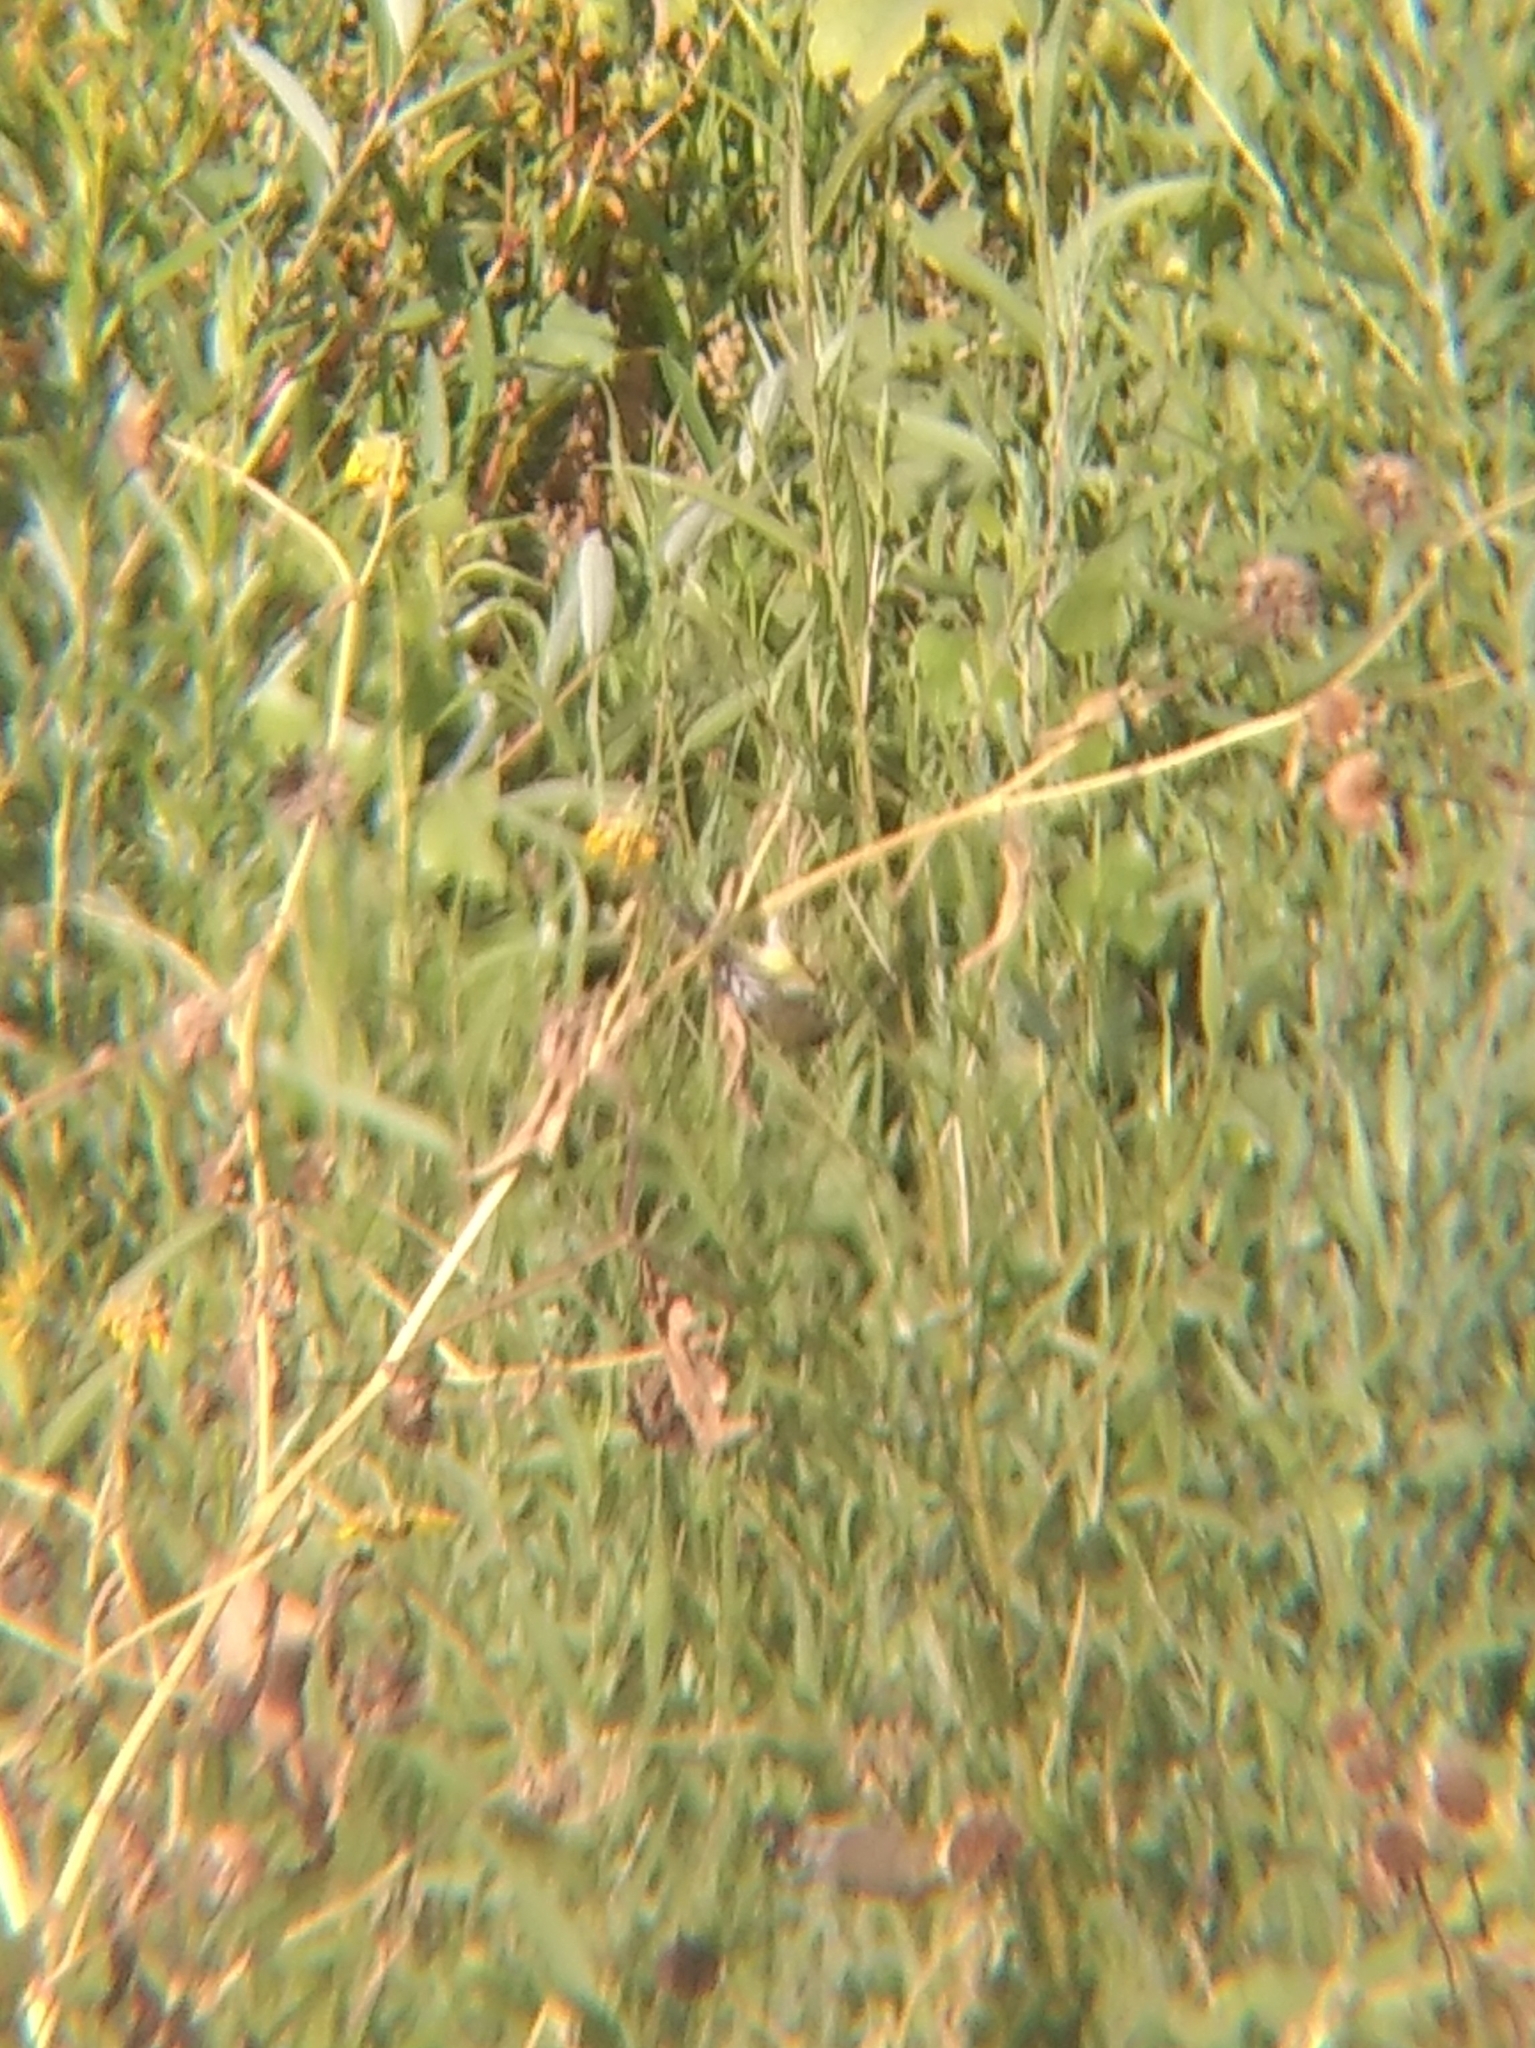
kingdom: Animalia
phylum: Chordata
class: Aves
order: Passeriformes
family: Fringillidae
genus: Spinus
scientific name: Spinus psaltria
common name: Lesser goldfinch
